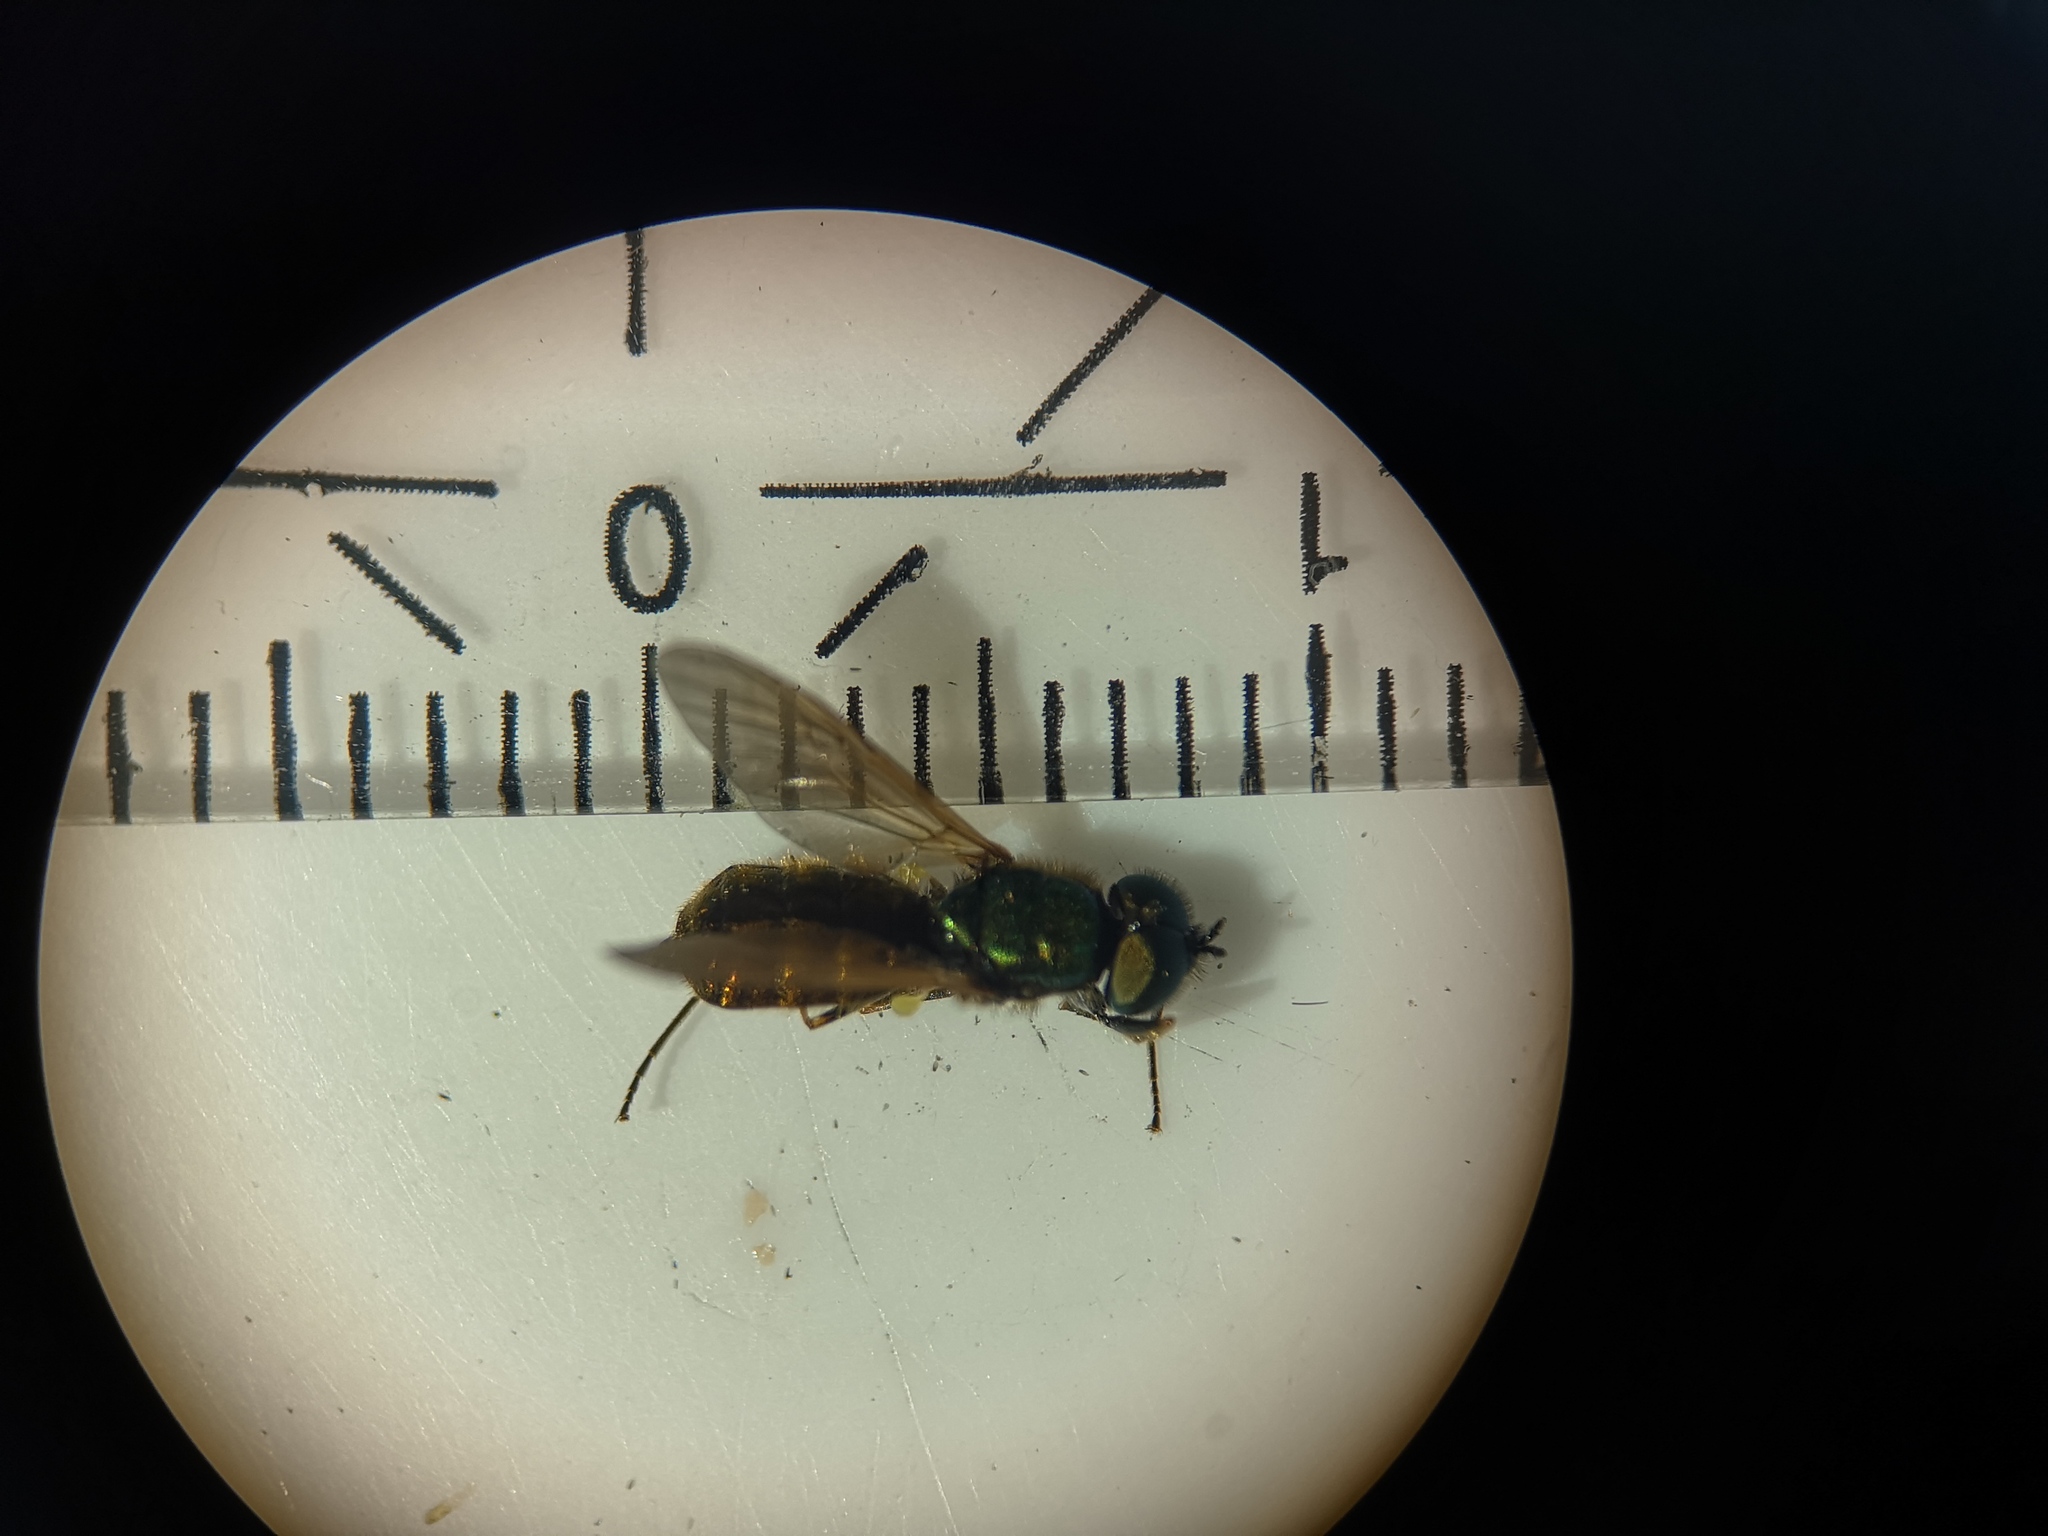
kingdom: Animalia
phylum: Arthropoda
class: Insecta
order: Diptera
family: Stratiomyidae
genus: Chloromyia
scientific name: Chloromyia formosa
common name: Soldier fly
